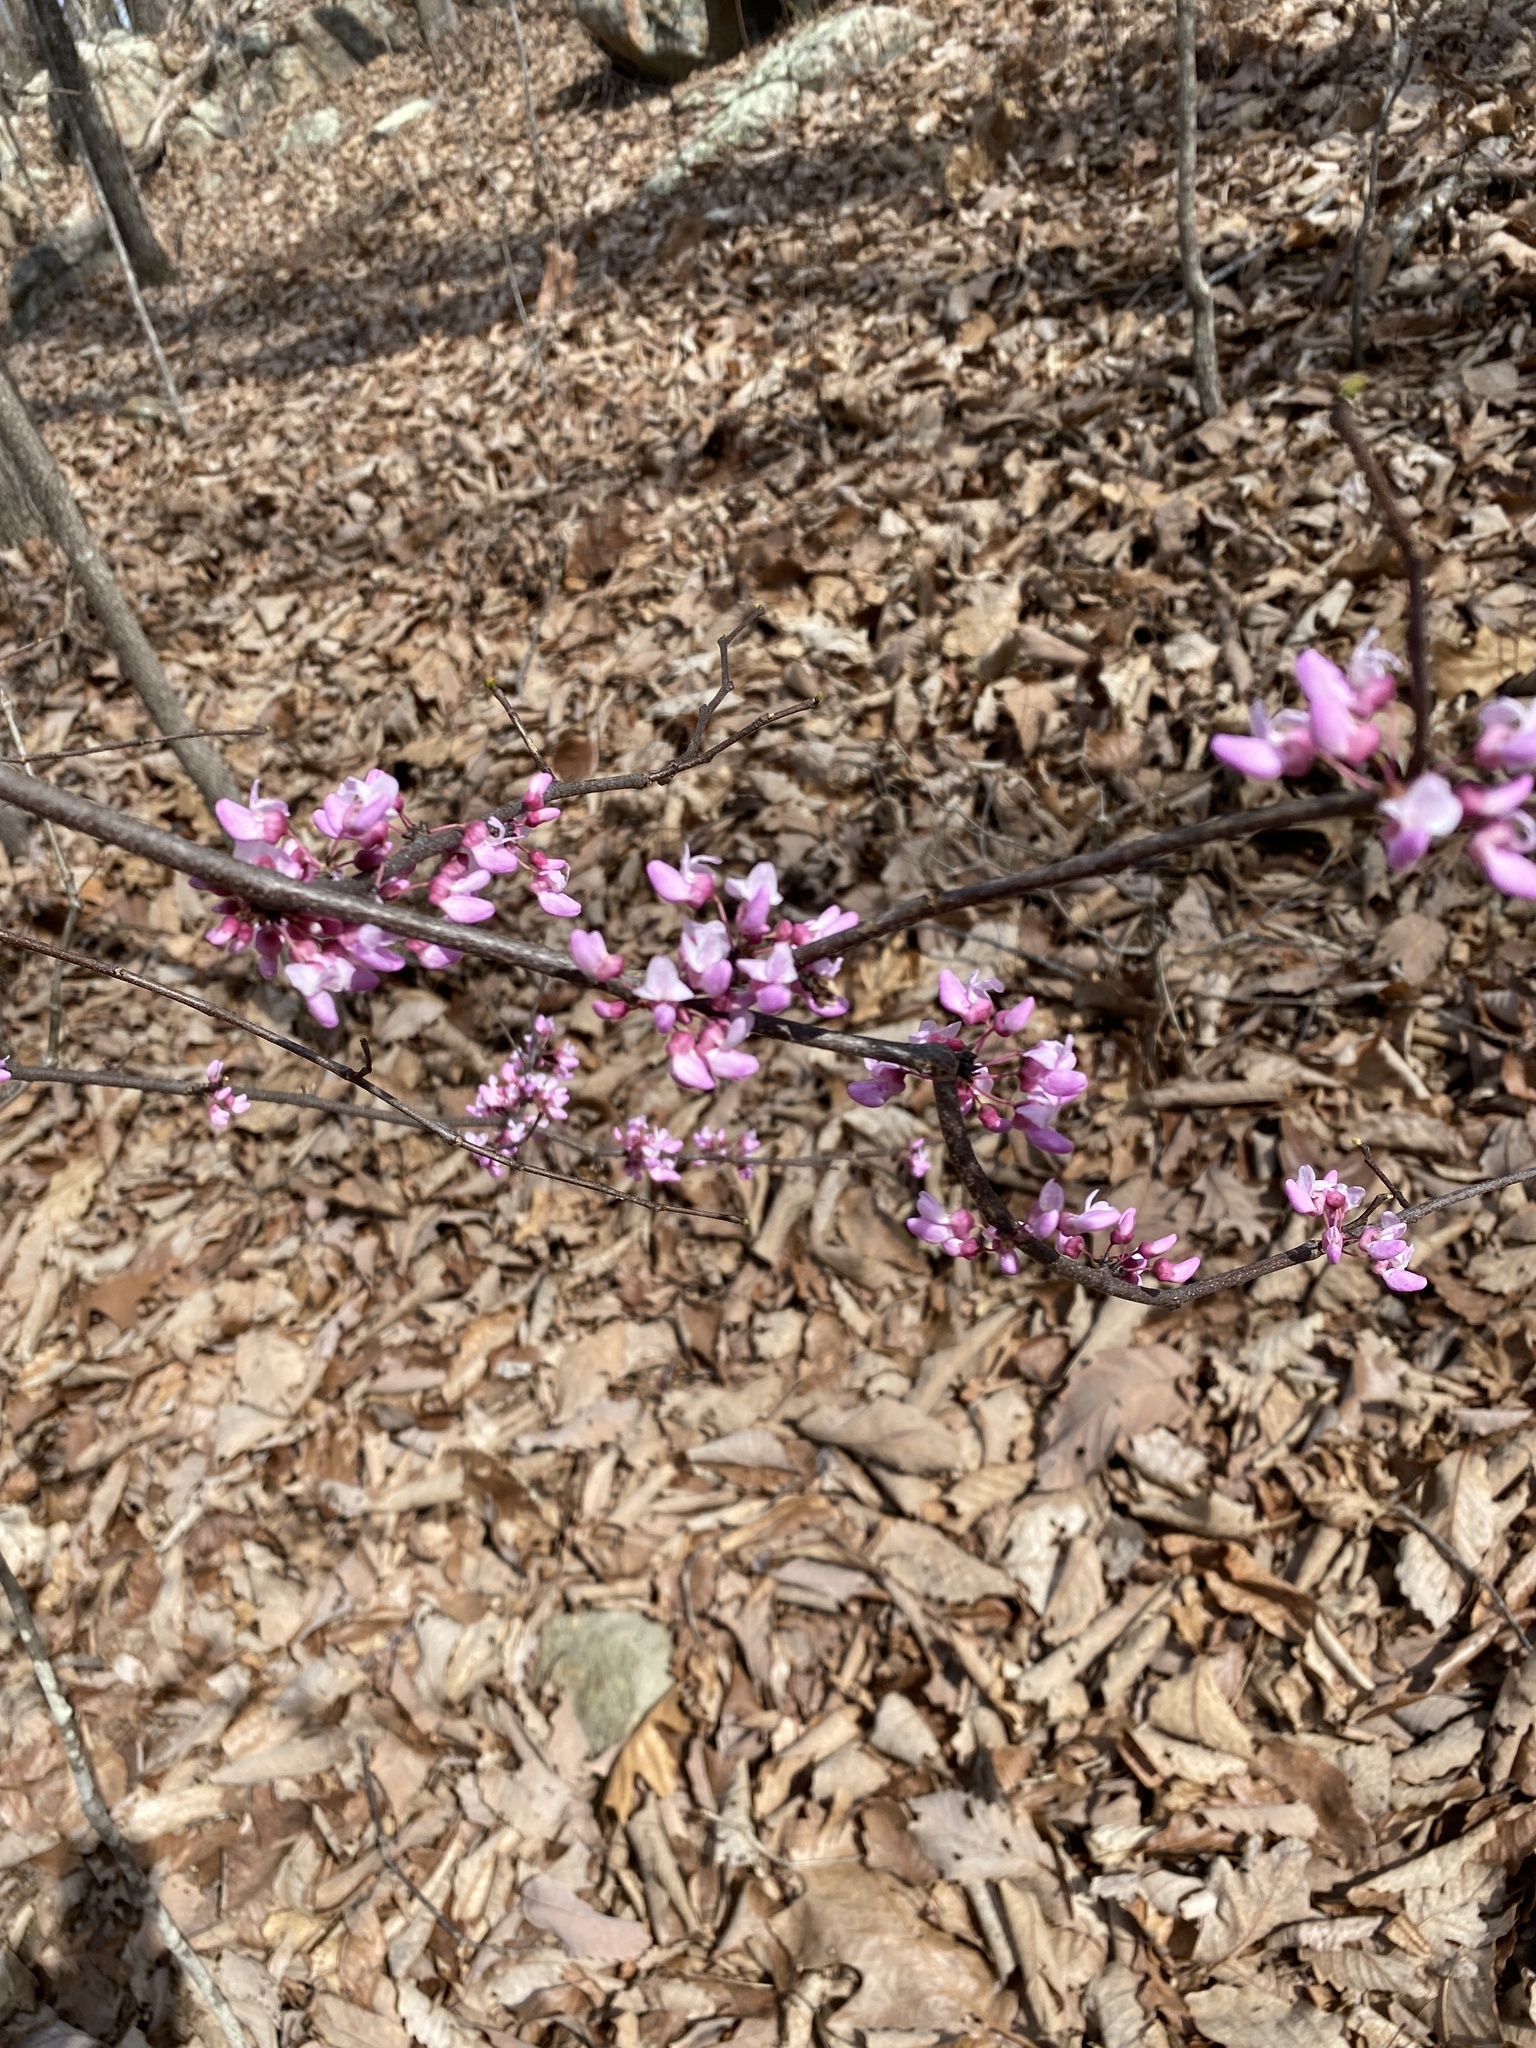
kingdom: Plantae
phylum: Tracheophyta
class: Magnoliopsida
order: Fabales
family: Fabaceae
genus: Cercis
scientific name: Cercis canadensis
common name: Eastern redbud
